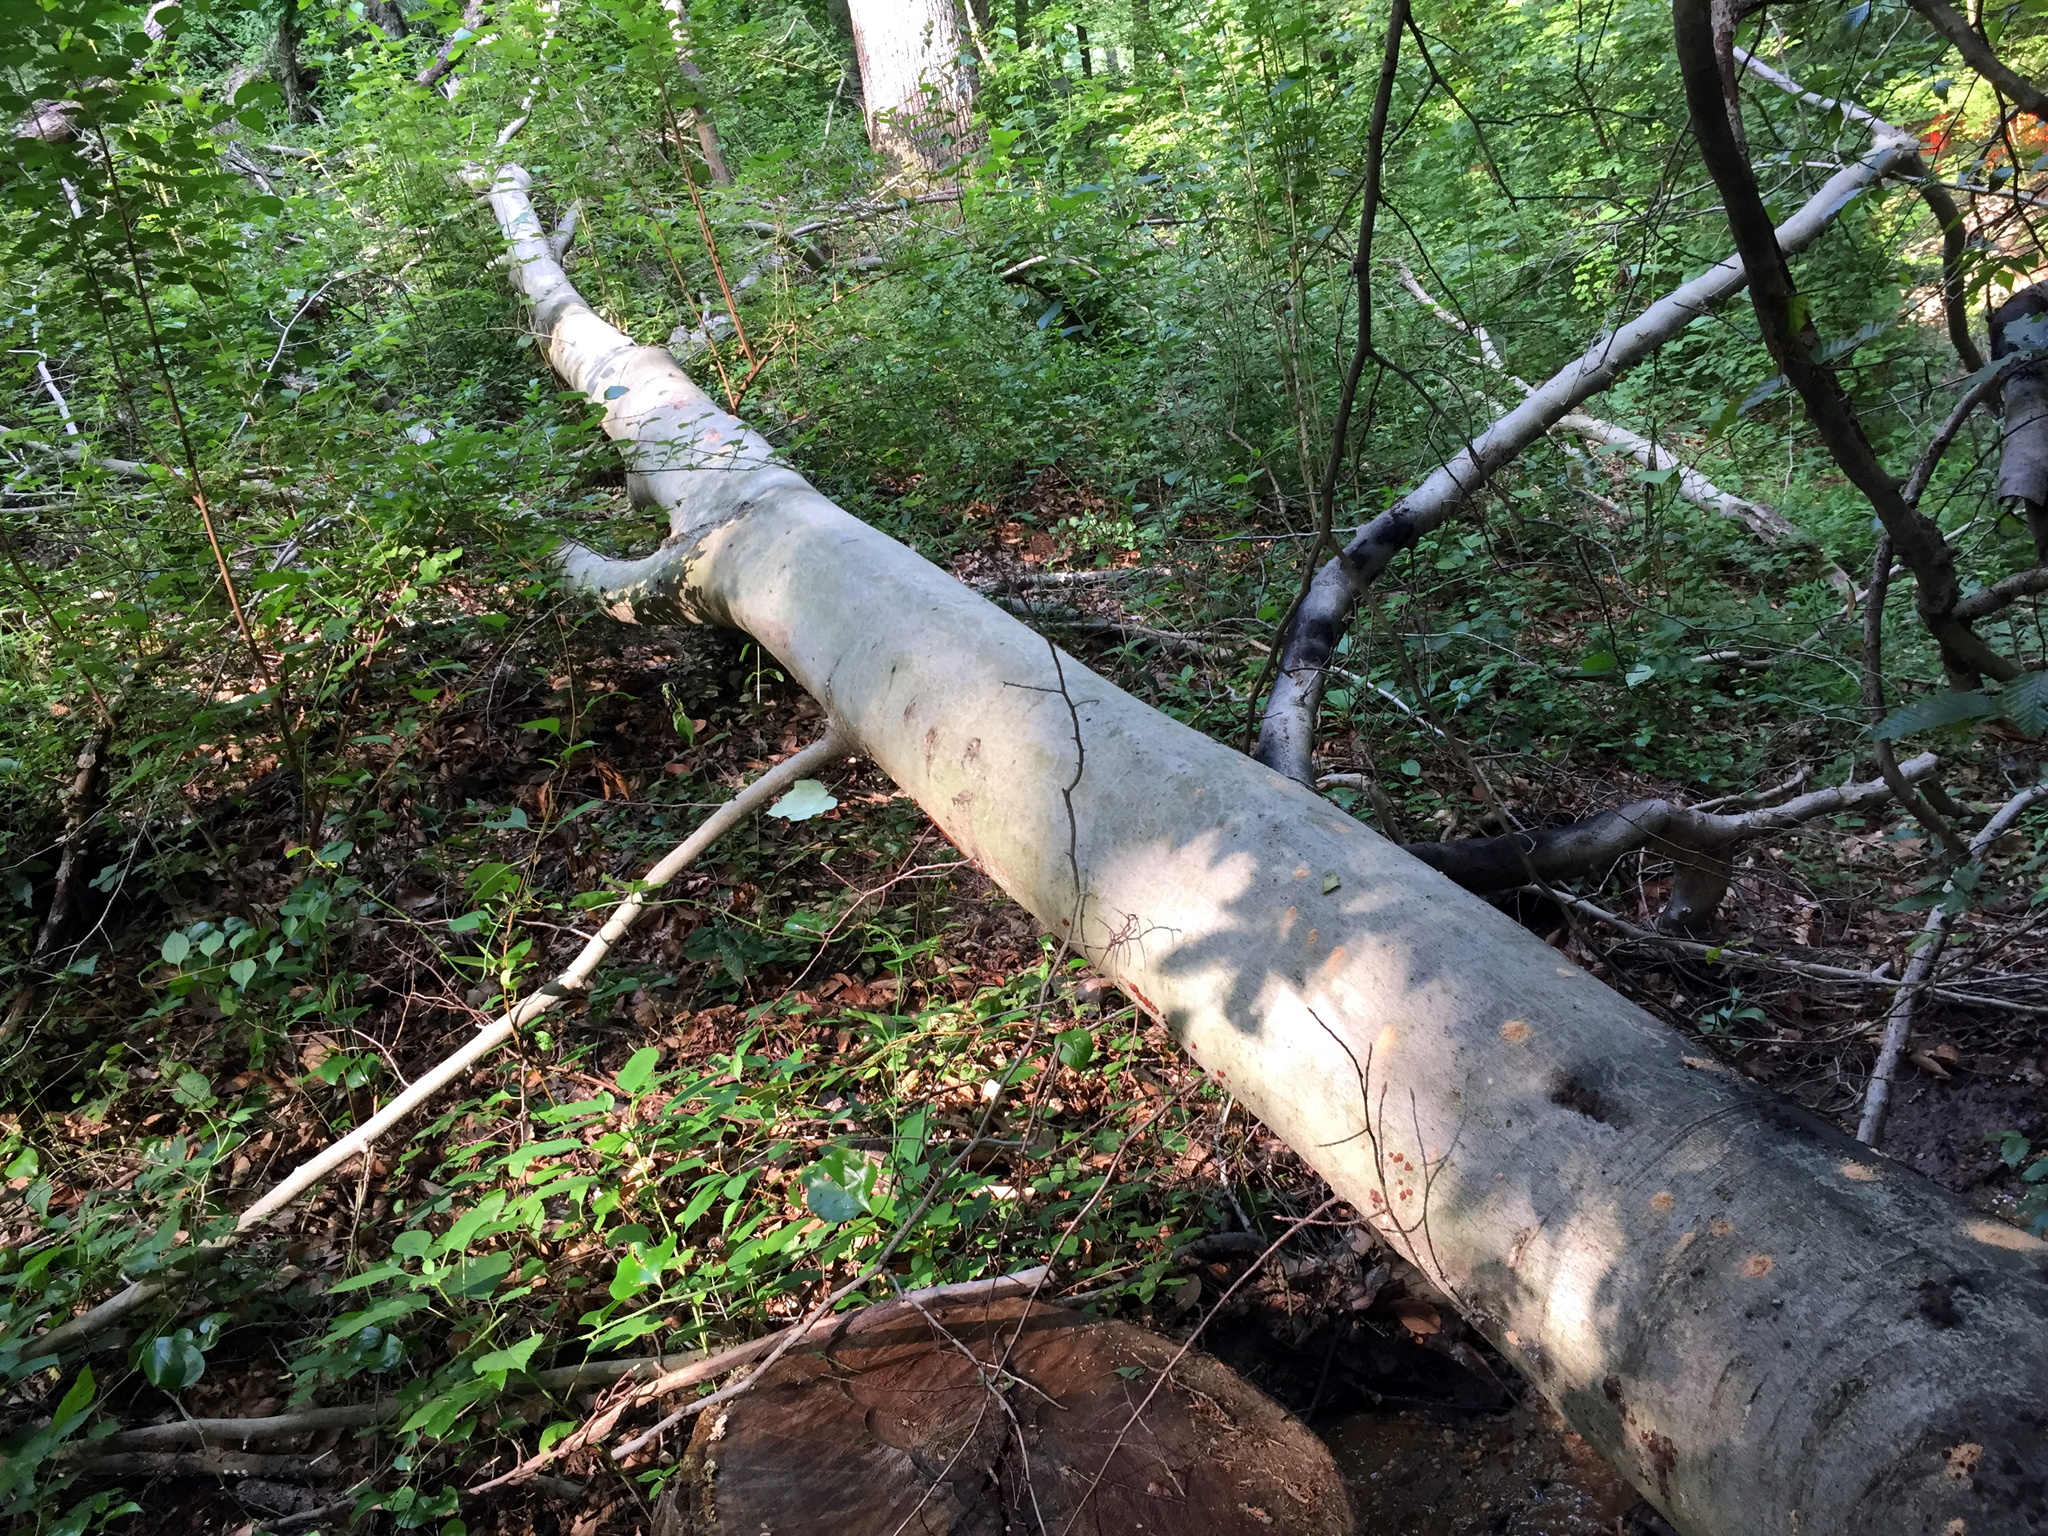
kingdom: Plantae
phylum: Tracheophyta
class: Magnoliopsida
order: Fagales
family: Fagaceae
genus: Fagus
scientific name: Fagus grandifolia
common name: American beech
